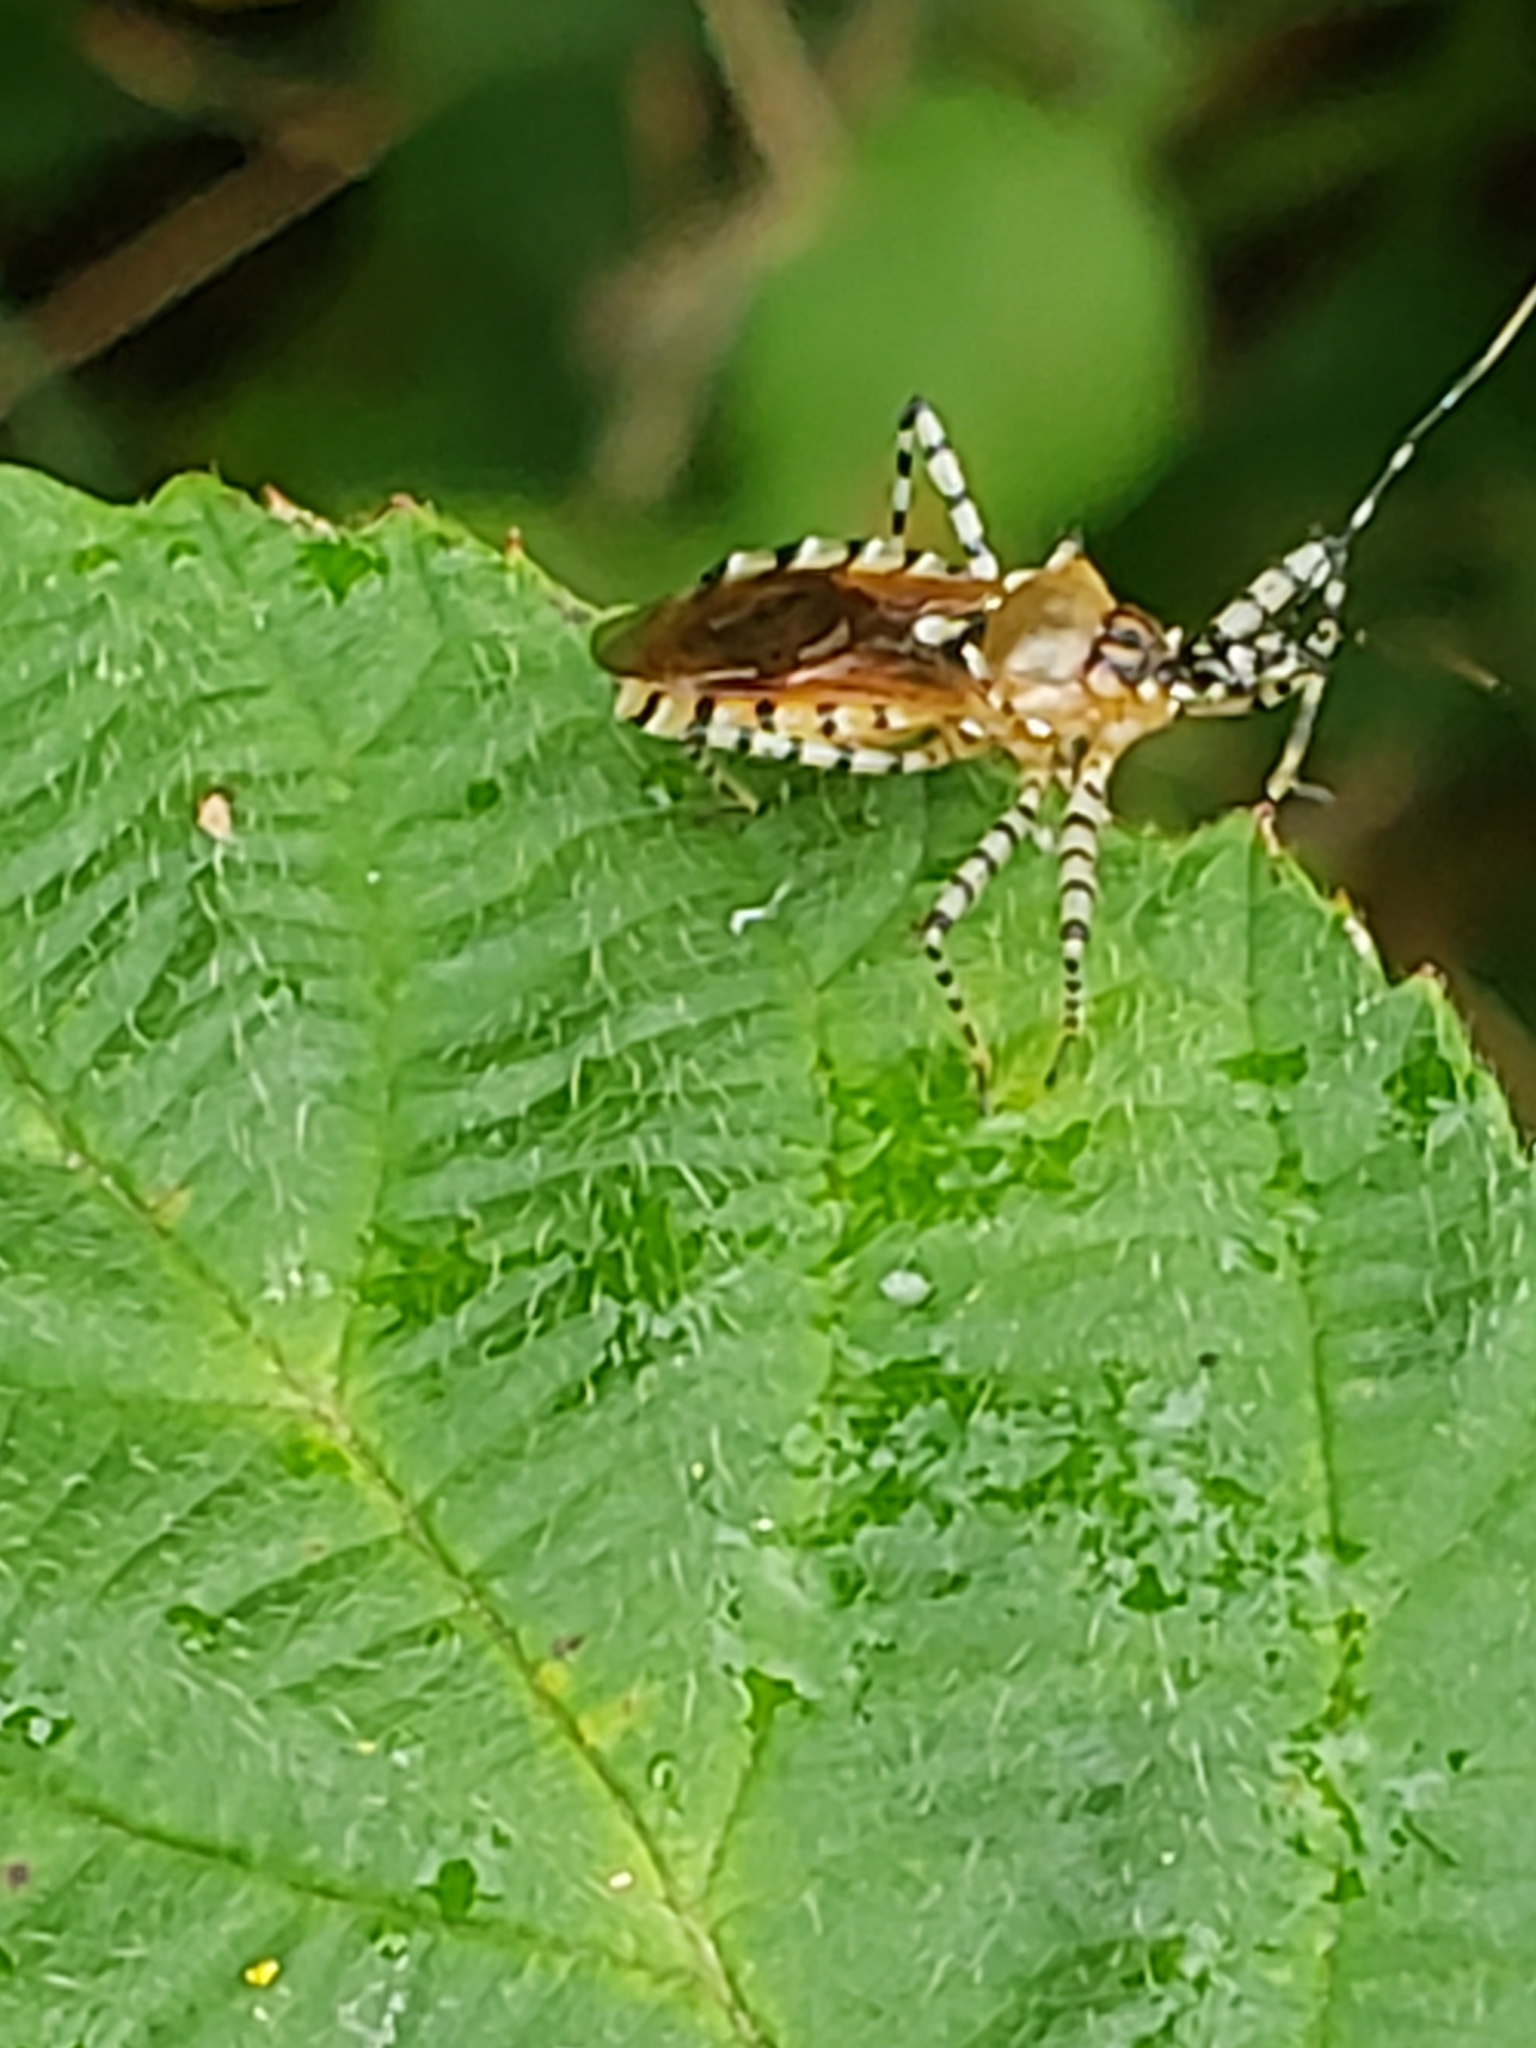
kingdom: Animalia
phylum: Arthropoda
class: Insecta
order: Hemiptera
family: Reduviidae
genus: Pselliopus
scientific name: Pselliopus cinctus
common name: Ringed assassin bug
